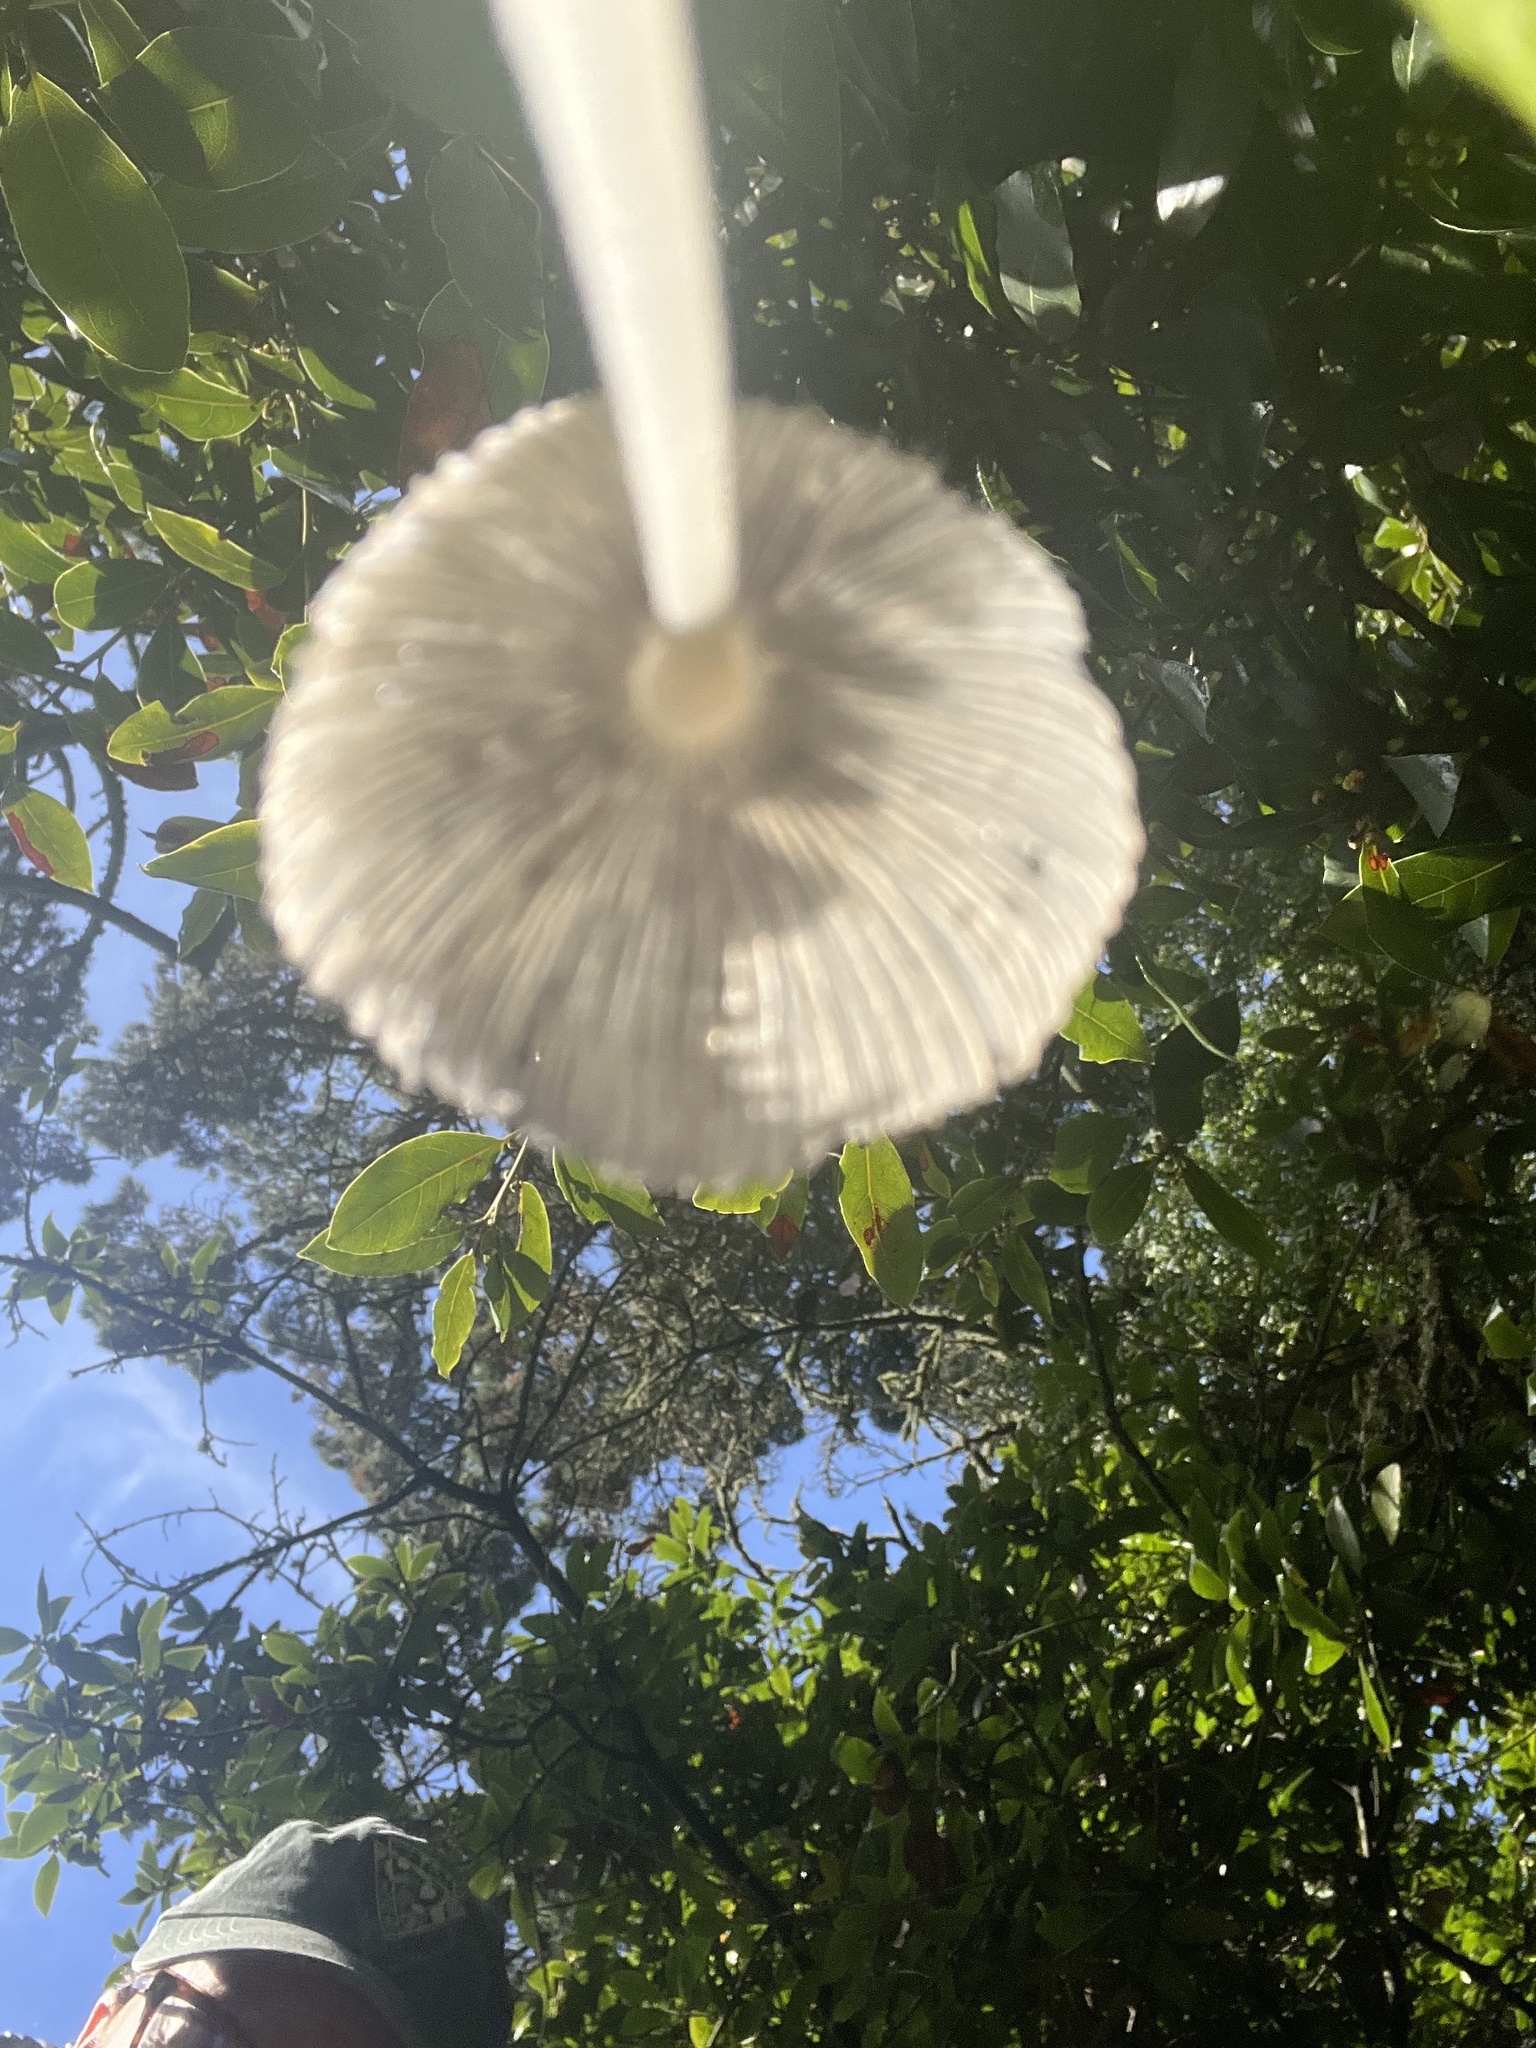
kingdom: Fungi
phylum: Basidiomycota
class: Agaricomycetes
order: Agaricales
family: Psathyrellaceae
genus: Coprinopsis
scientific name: Coprinopsis lagopus
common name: Hare'sfoot inkcap
